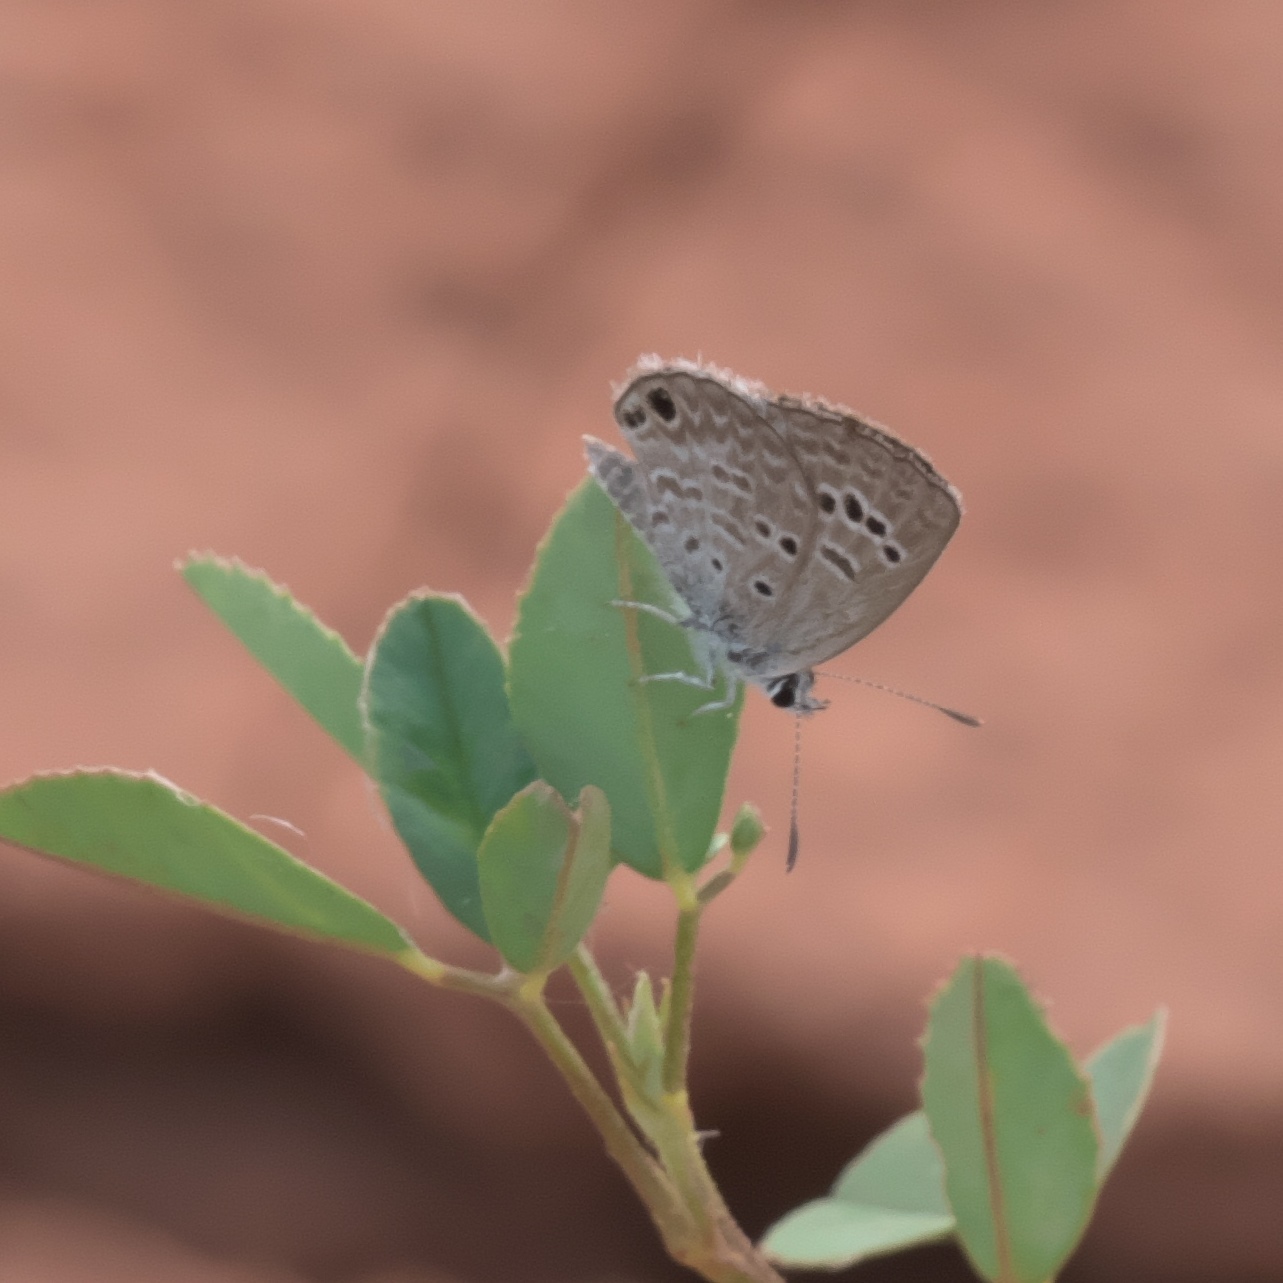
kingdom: Animalia
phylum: Arthropoda
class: Insecta
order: Lepidoptera
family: Lycaenidae
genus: Echinargus
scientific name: Echinargus isola
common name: Reakirt's blue
